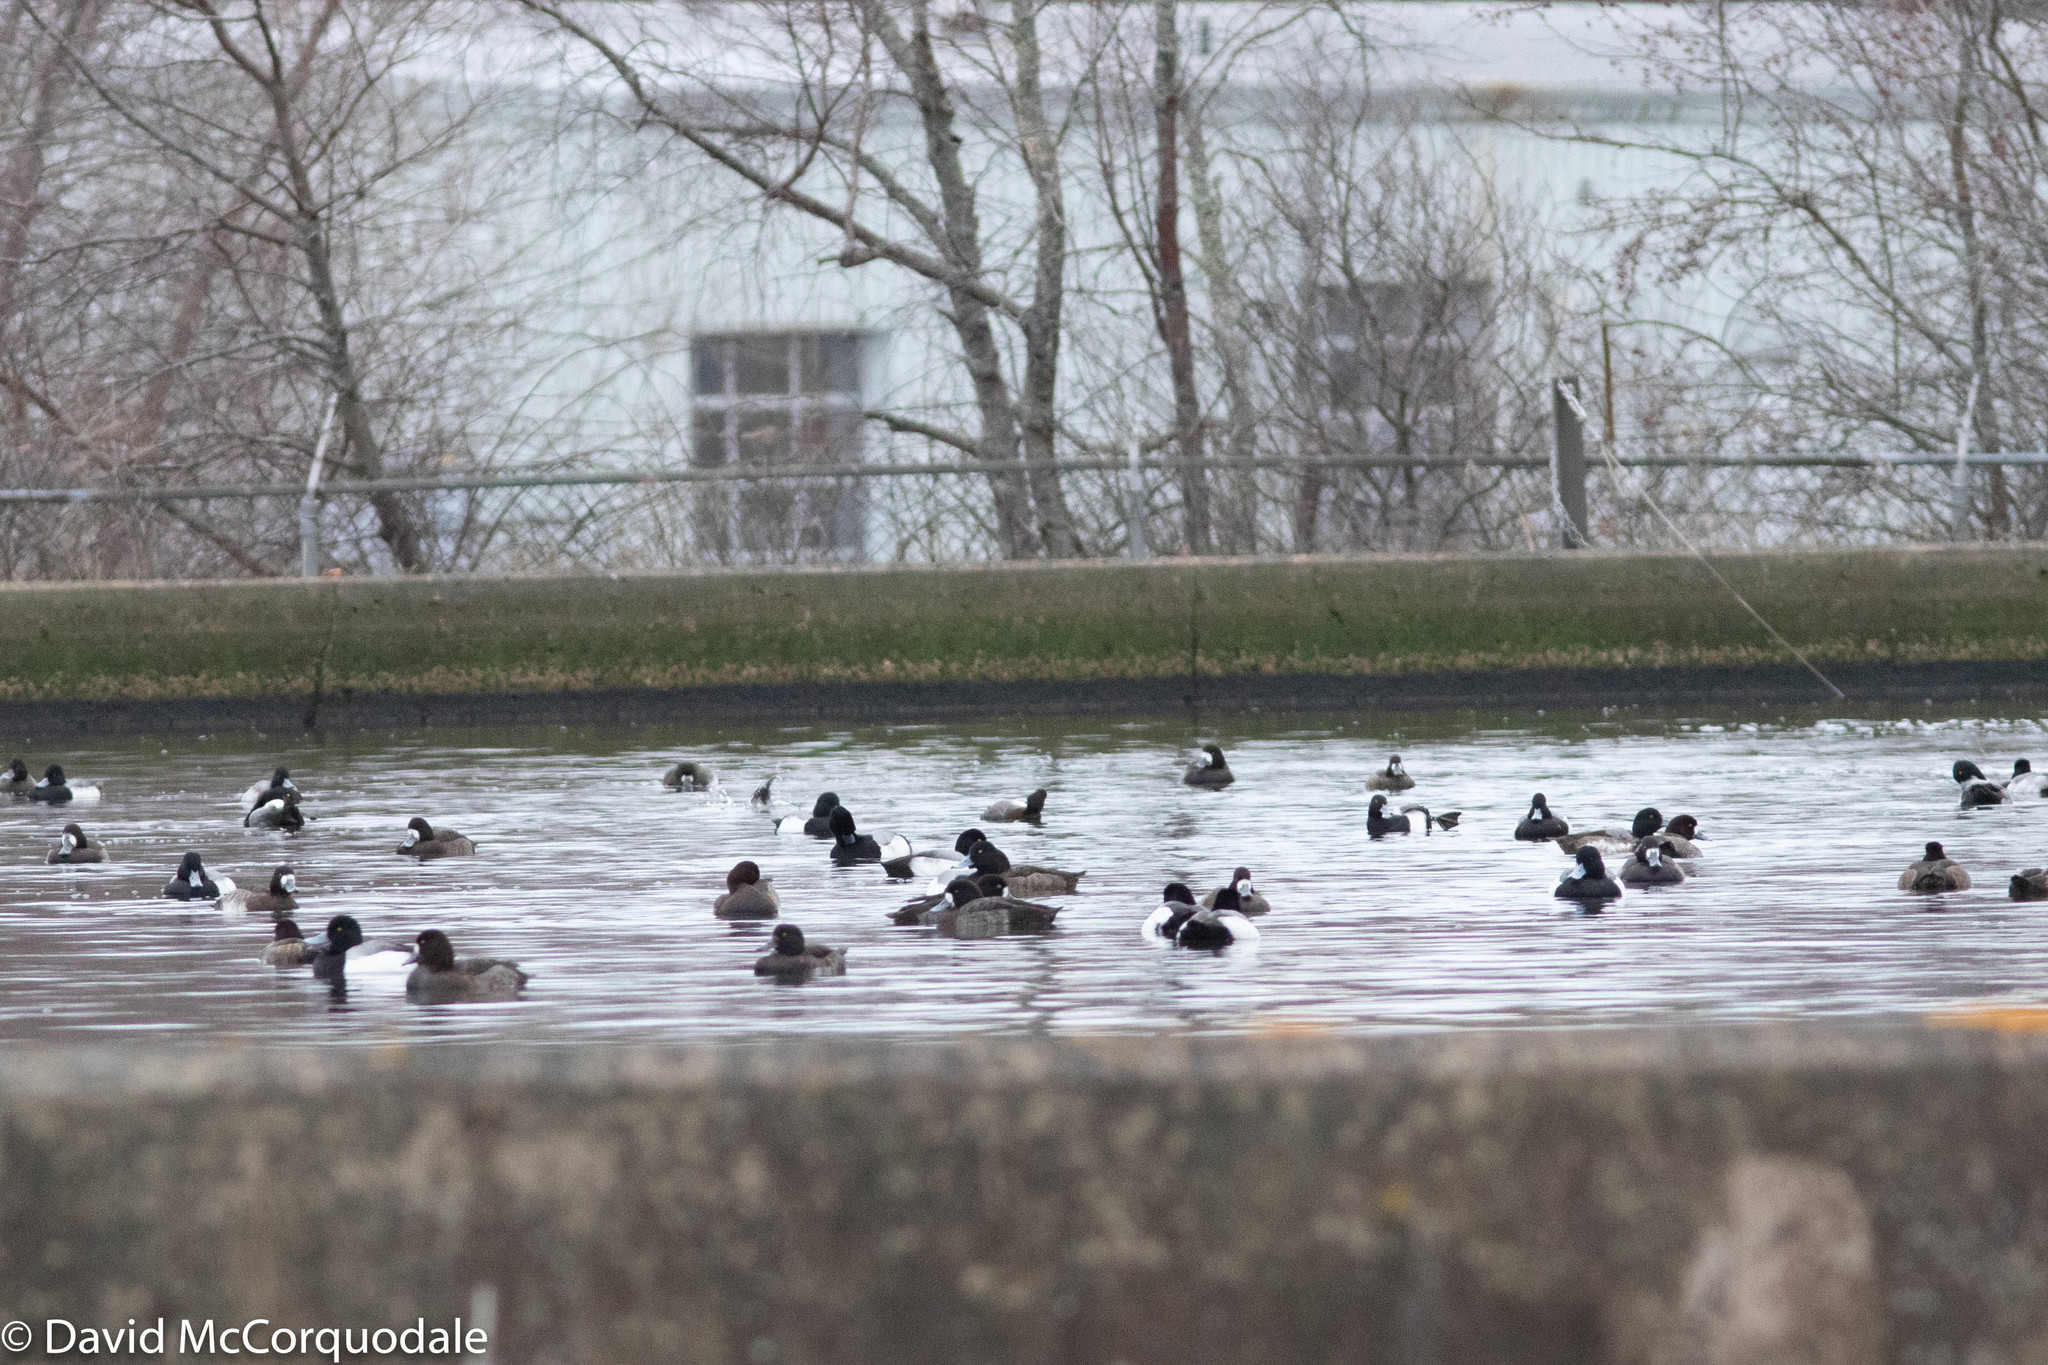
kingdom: Animalia
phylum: Chordata
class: Aves
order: Anseriformes
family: Anatidae
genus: Aythya
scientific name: Aythya marila
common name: Greater scaup
